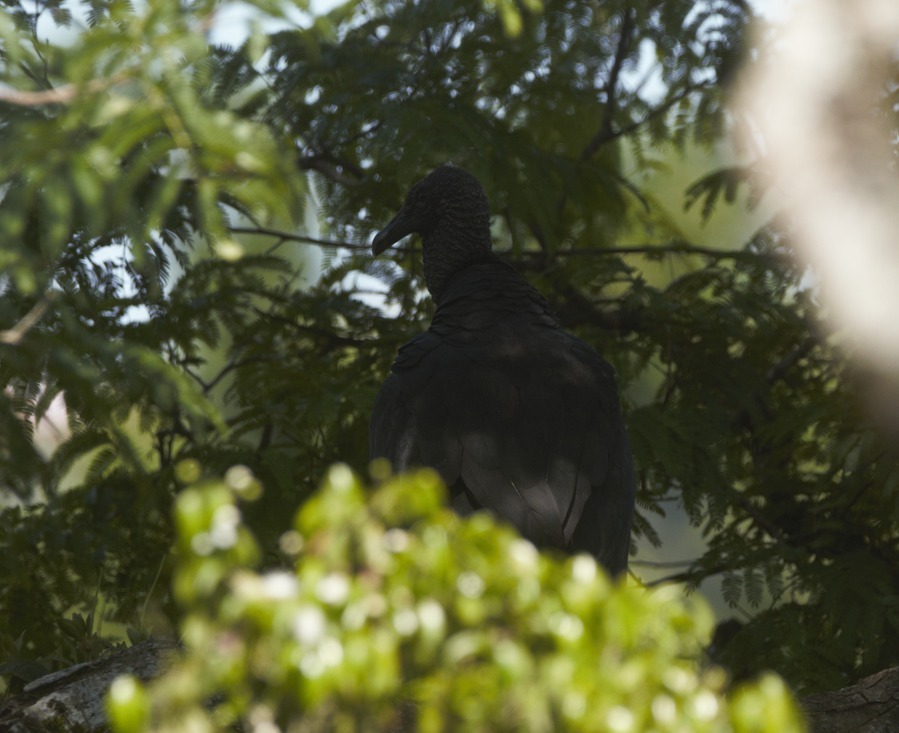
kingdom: Animalia
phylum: Chordata
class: Aves
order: Accipitriformes
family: Cathartidae
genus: Coragyps
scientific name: Coragyps atratus
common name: Black vulture
